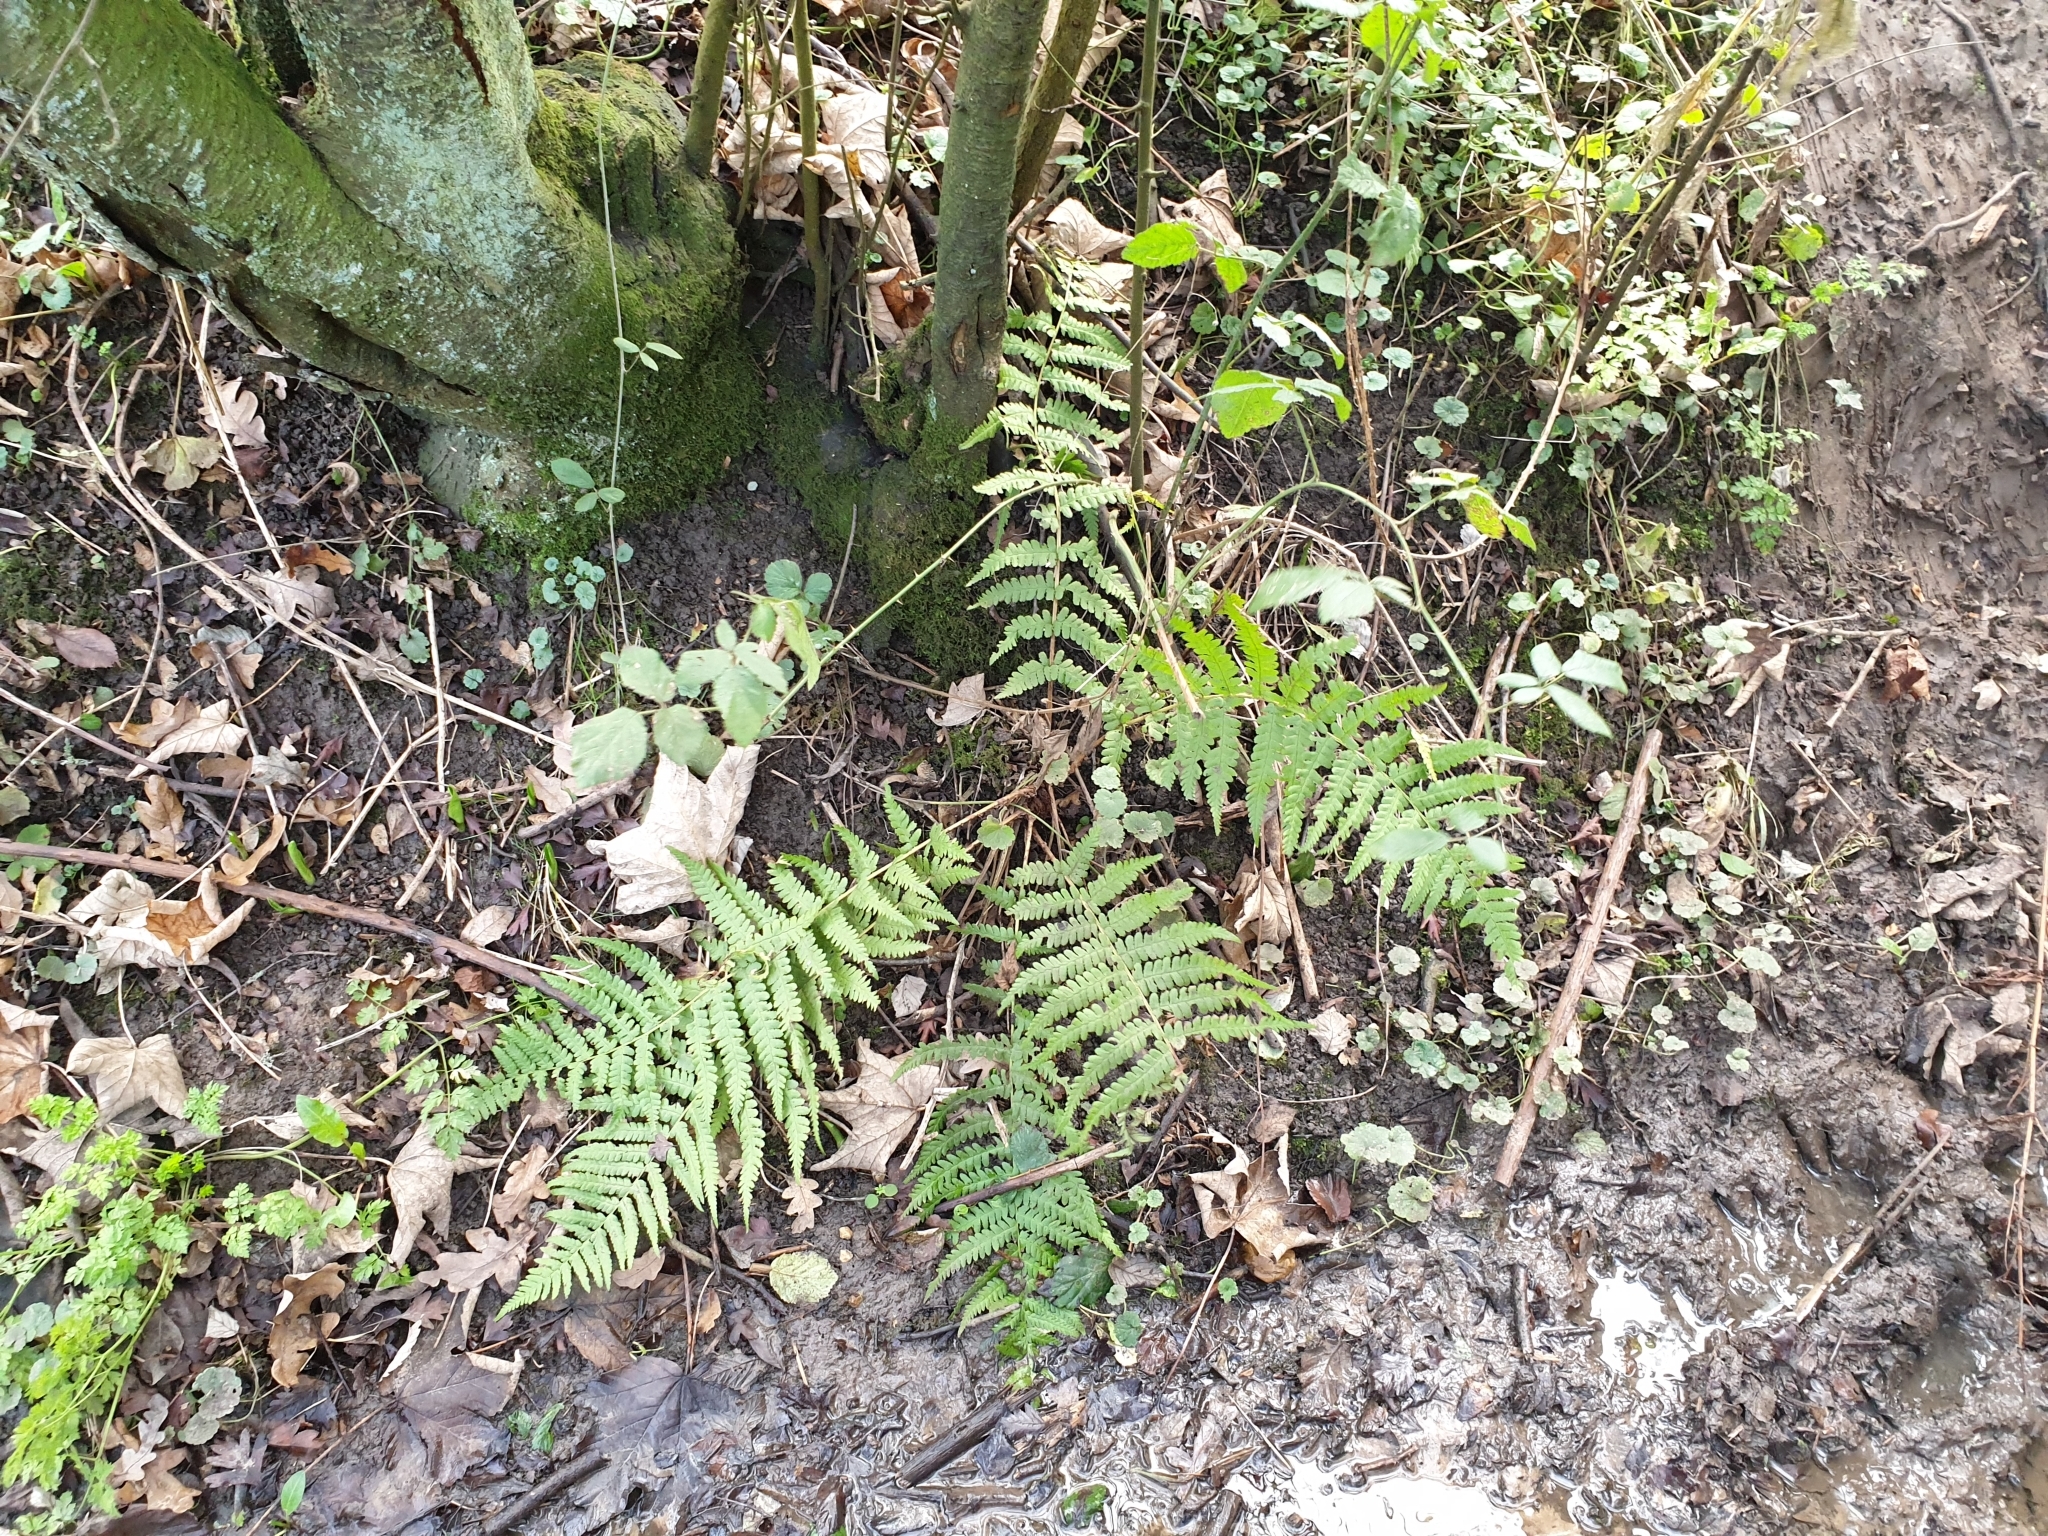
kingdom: Plantae
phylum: Tracheophyta
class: Polypodiopsida
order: Polypodiales
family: Dryopteridaceae
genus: Dryopteris
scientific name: Dryopteris filix-mas
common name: Male fern
